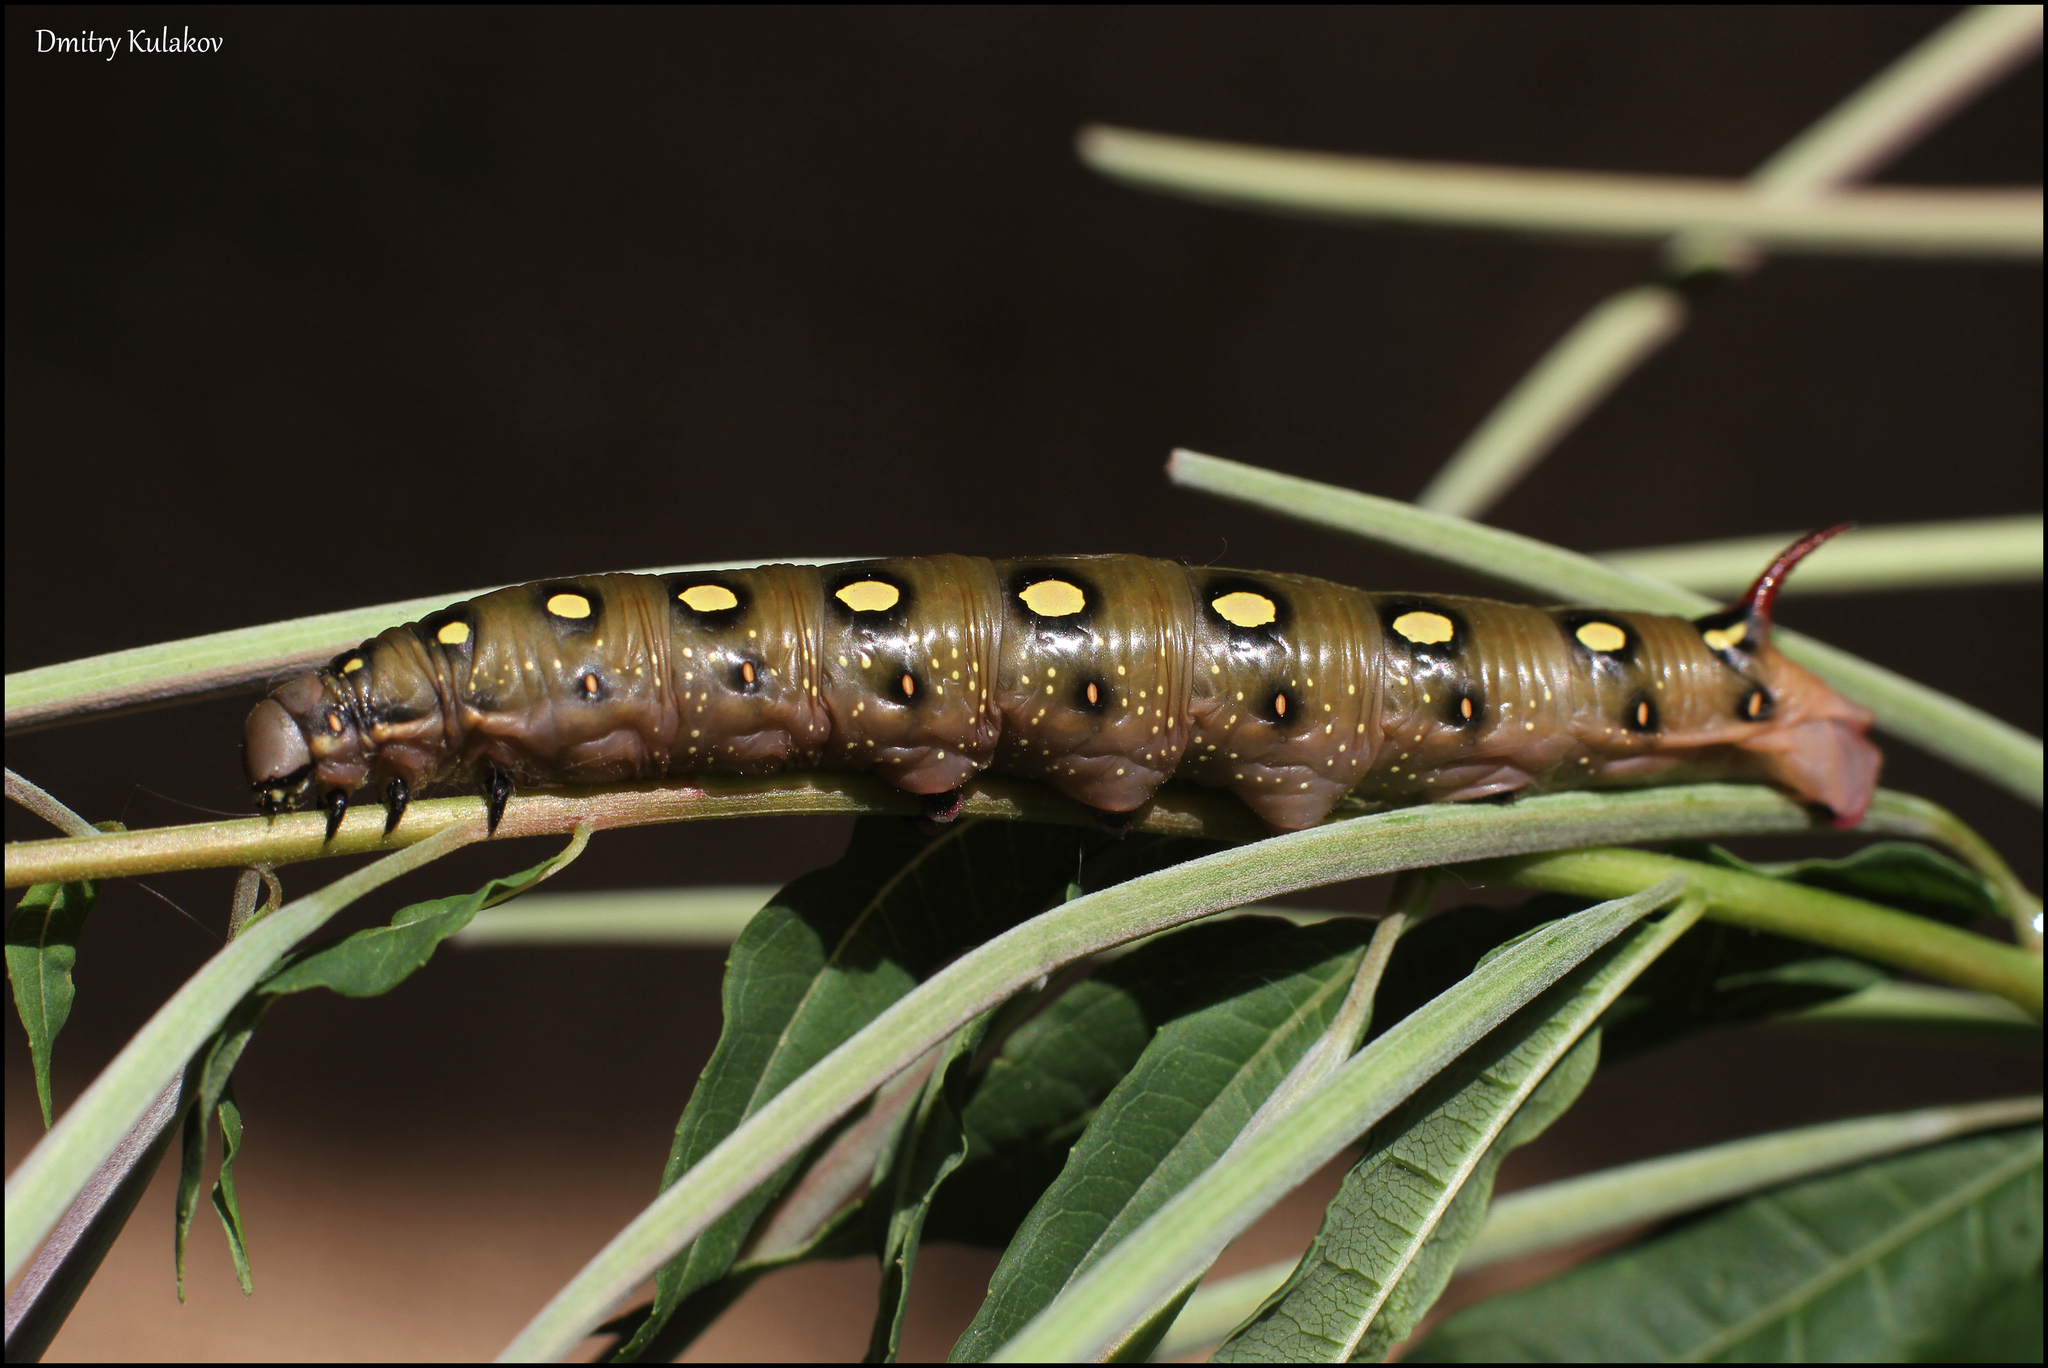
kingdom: Animalia
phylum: Arthropoda
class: Insecta
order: Lepidoptera
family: Sphingidae
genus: Hyles
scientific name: Hyles gallii
